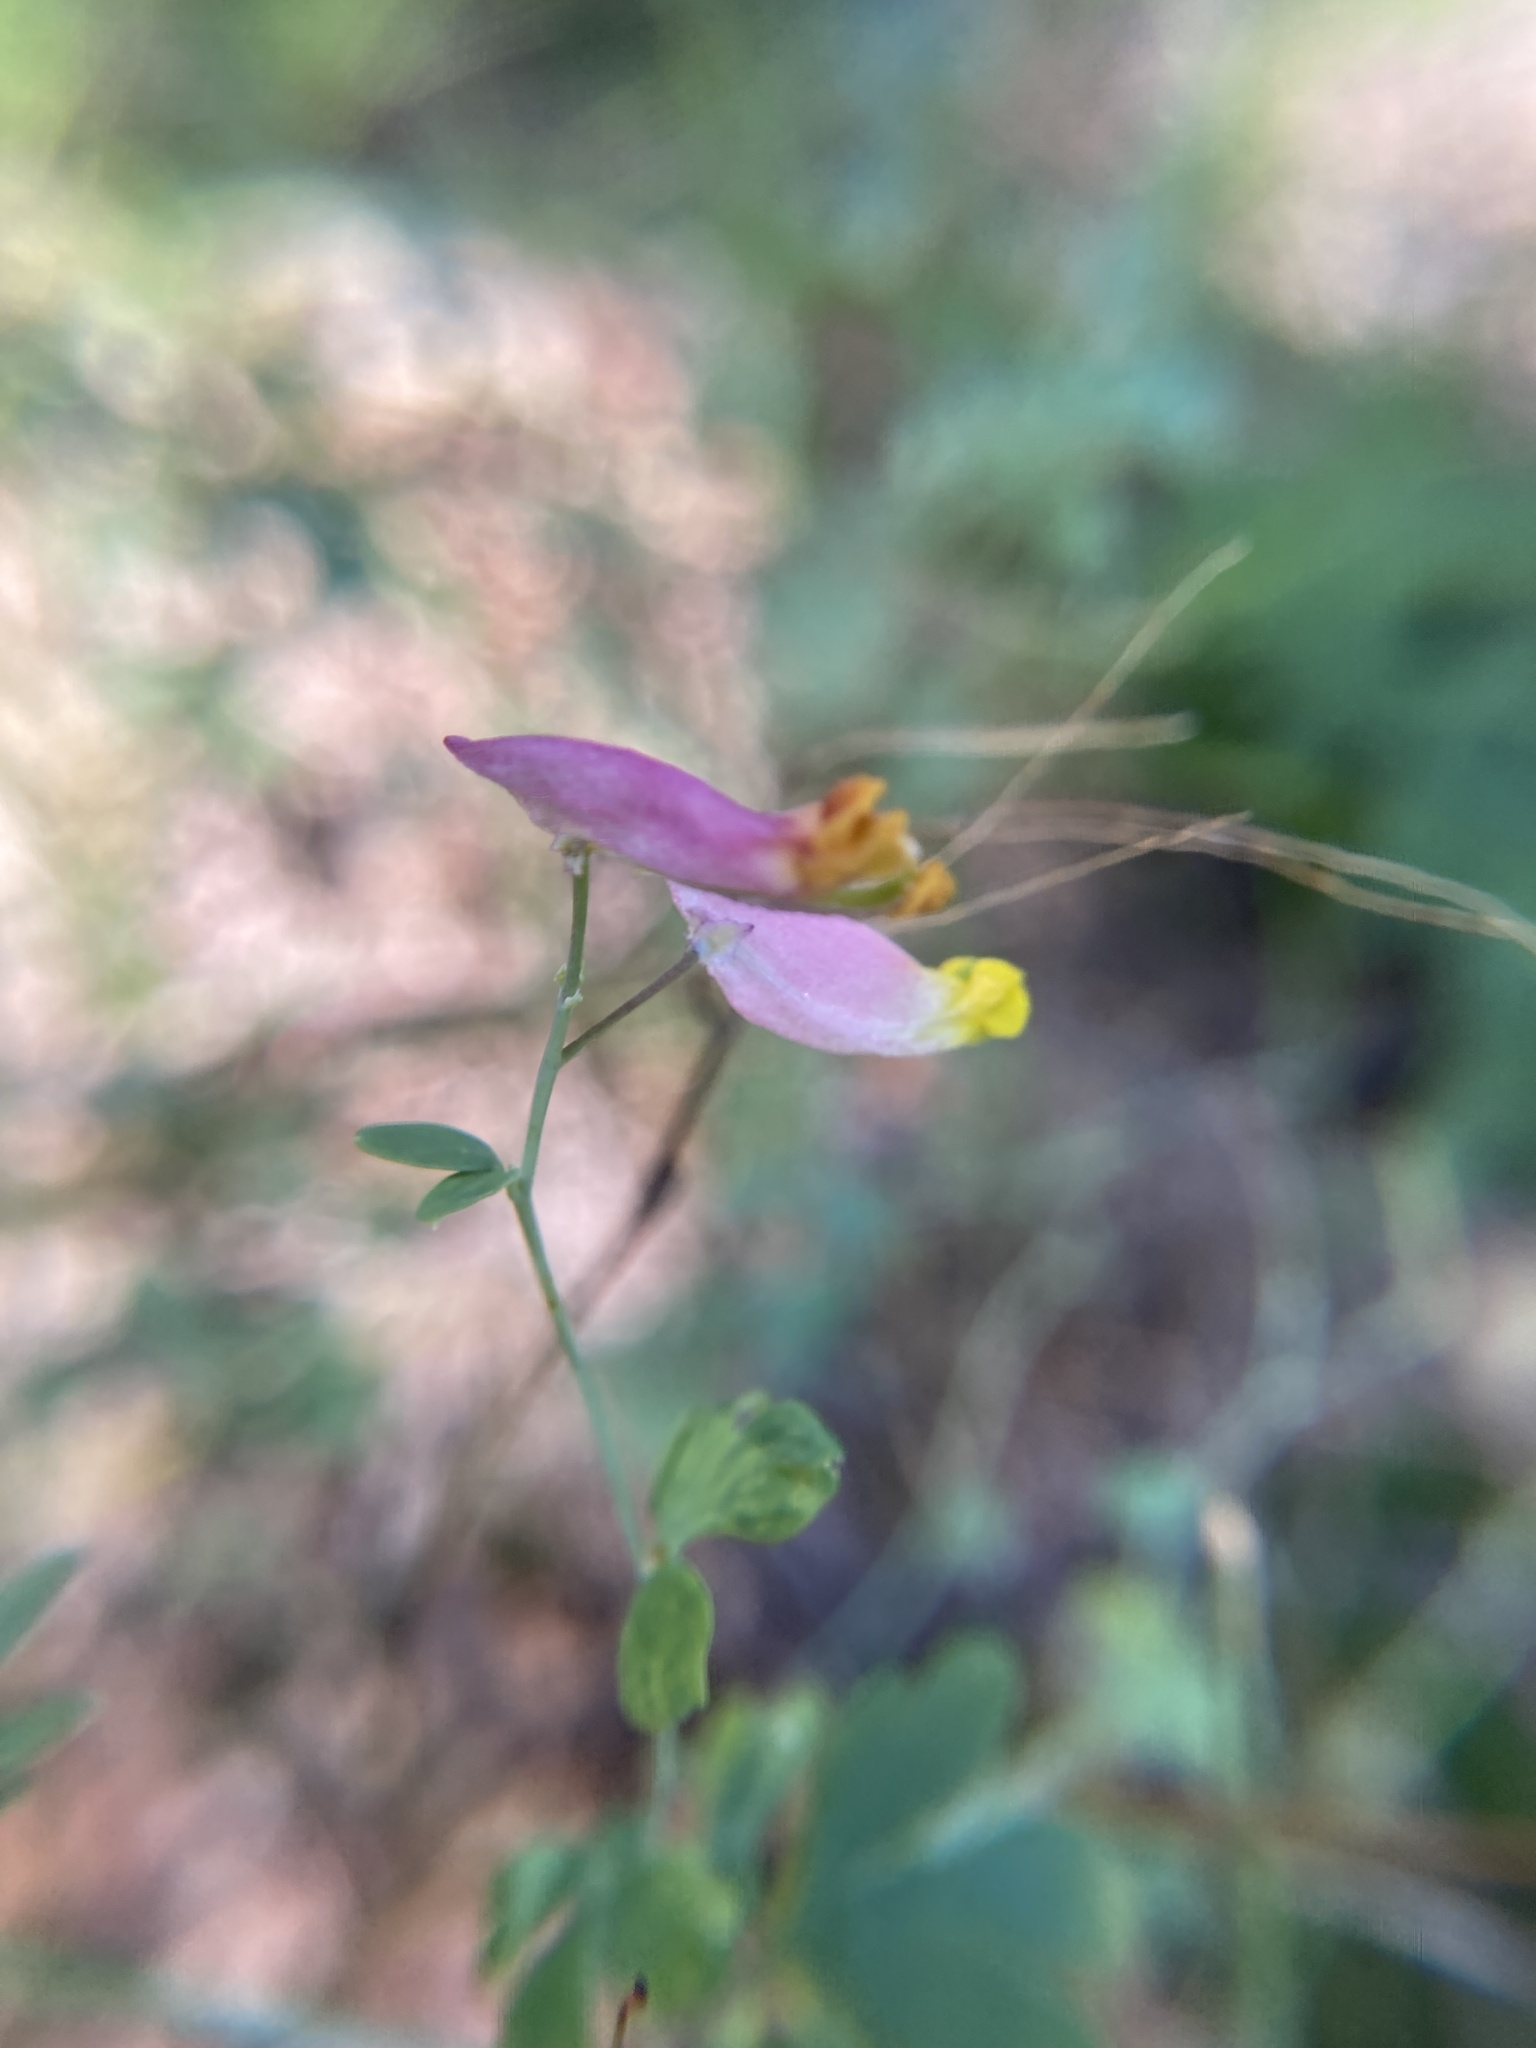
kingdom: Plantae
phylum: Tracheophyta
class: Magnoliopsida
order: Ranunculales
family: Papaveraceae
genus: Capnoides
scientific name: Capnoides sempervirens
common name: Rock harlequin
